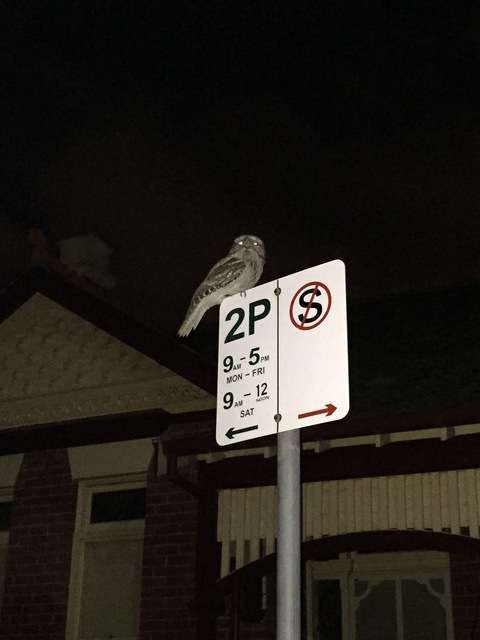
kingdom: Animalia
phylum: Chordata
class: Aves
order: Caprimulgiformes
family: Podargidae
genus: Podargus
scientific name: Podargus strigoides
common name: Tawny frogmouth
